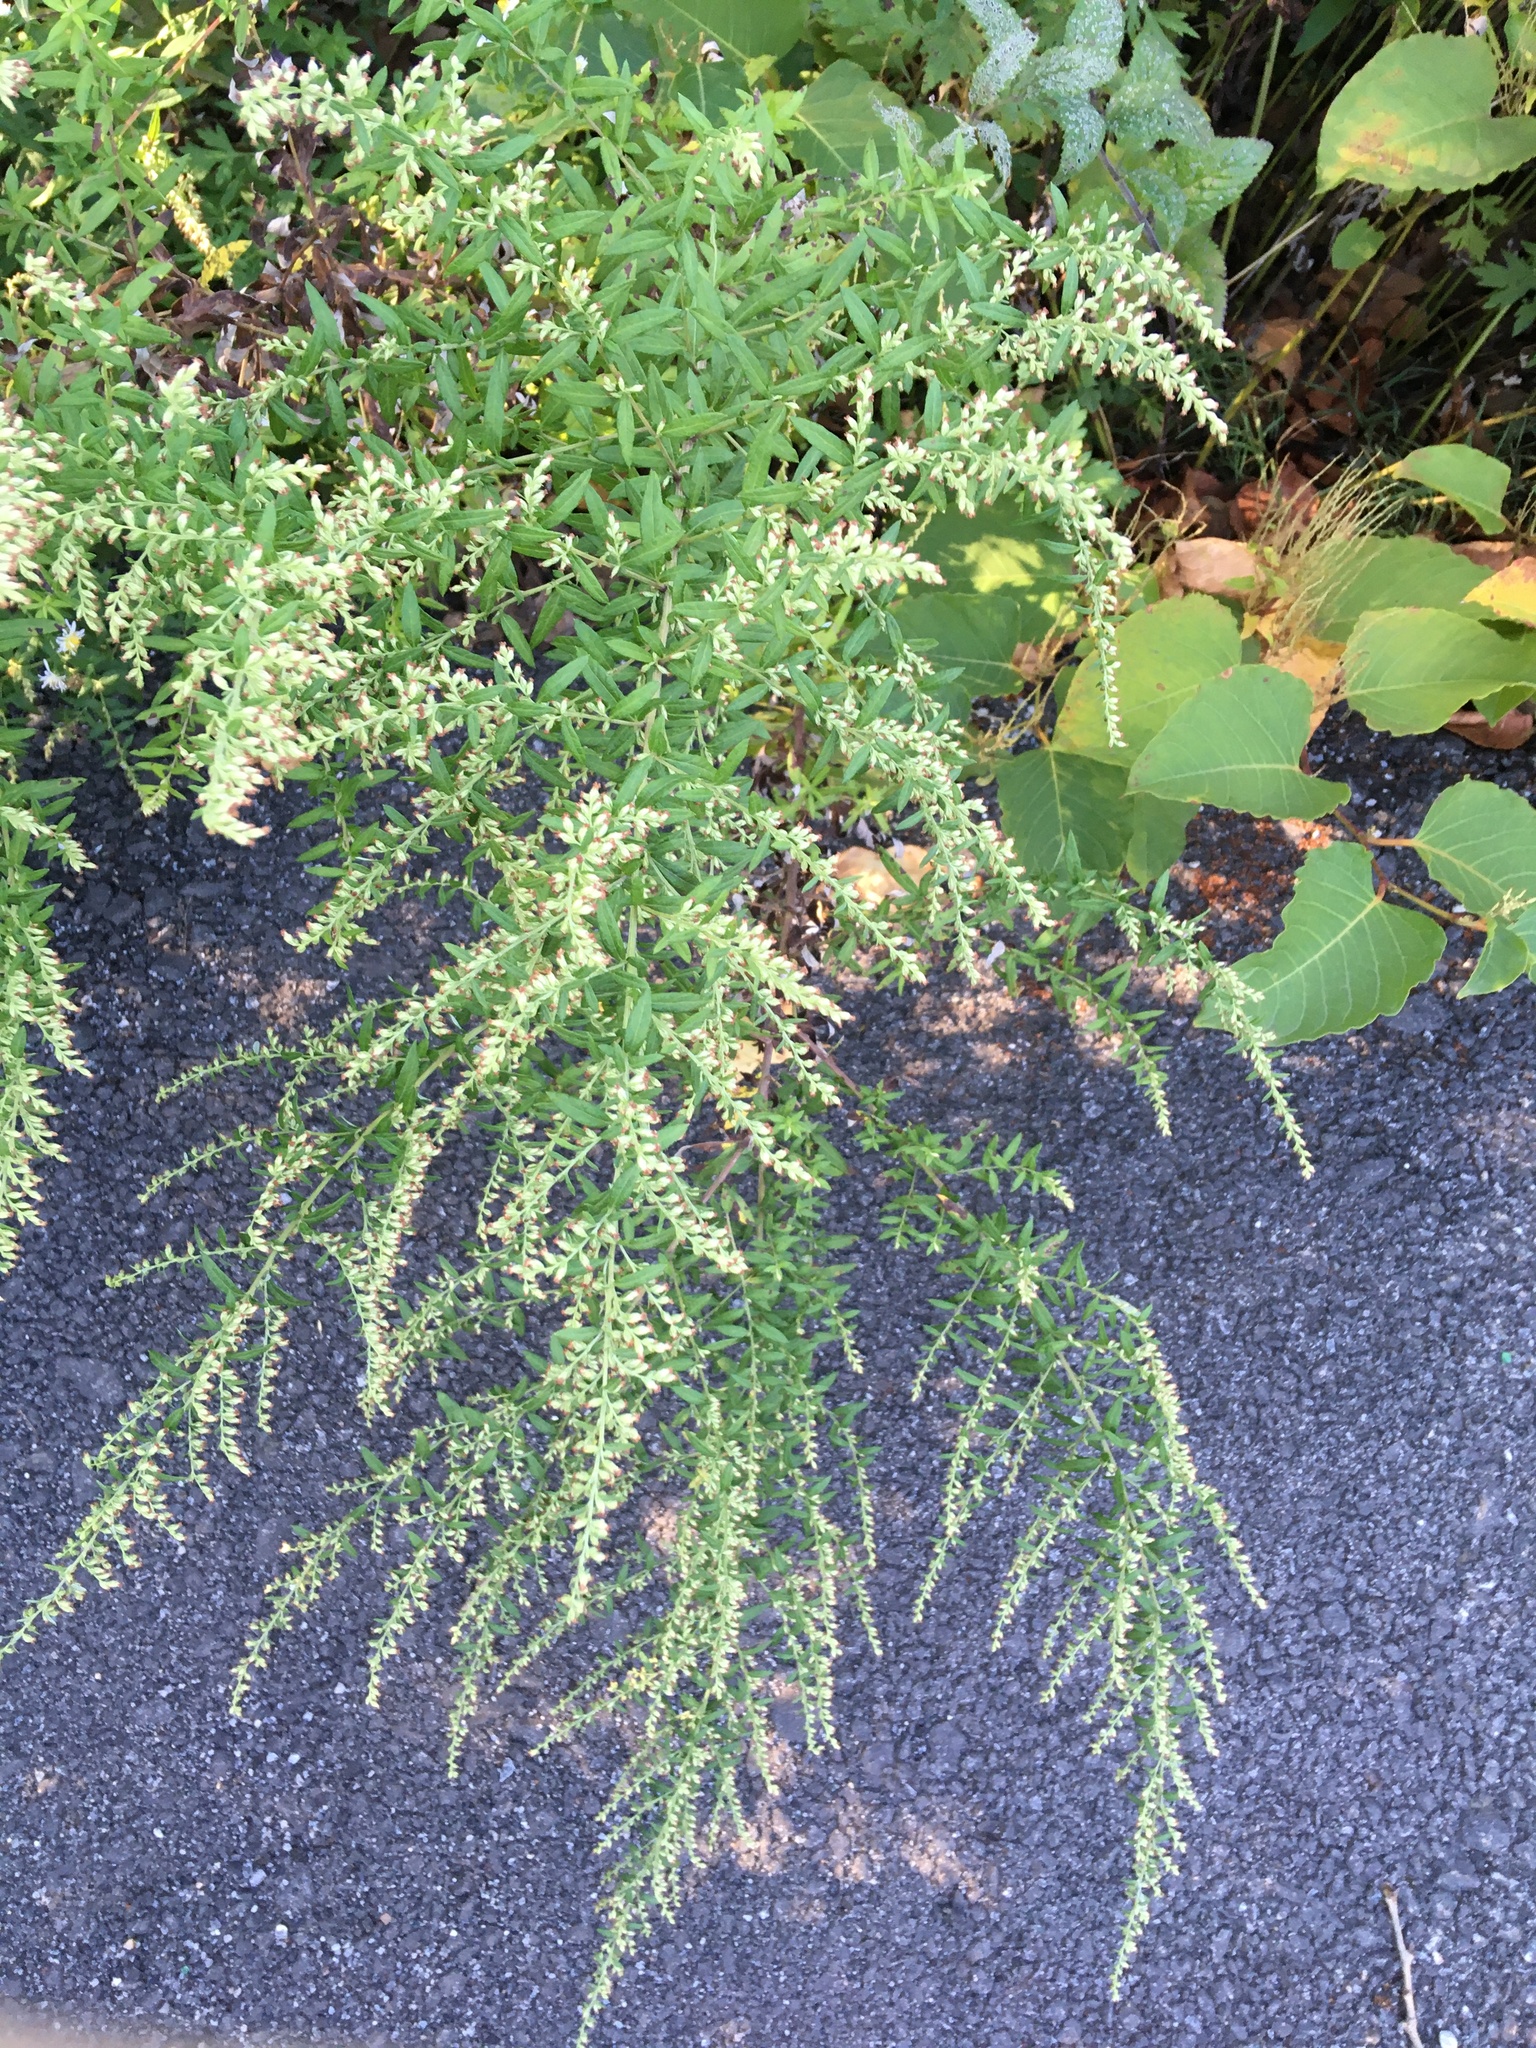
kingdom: Plantae
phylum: Tracheophyta
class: Magnoliopsida
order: Asterales
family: Asteraceae
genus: Artemisia
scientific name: Artemisia vulgaris
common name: Mugwort
